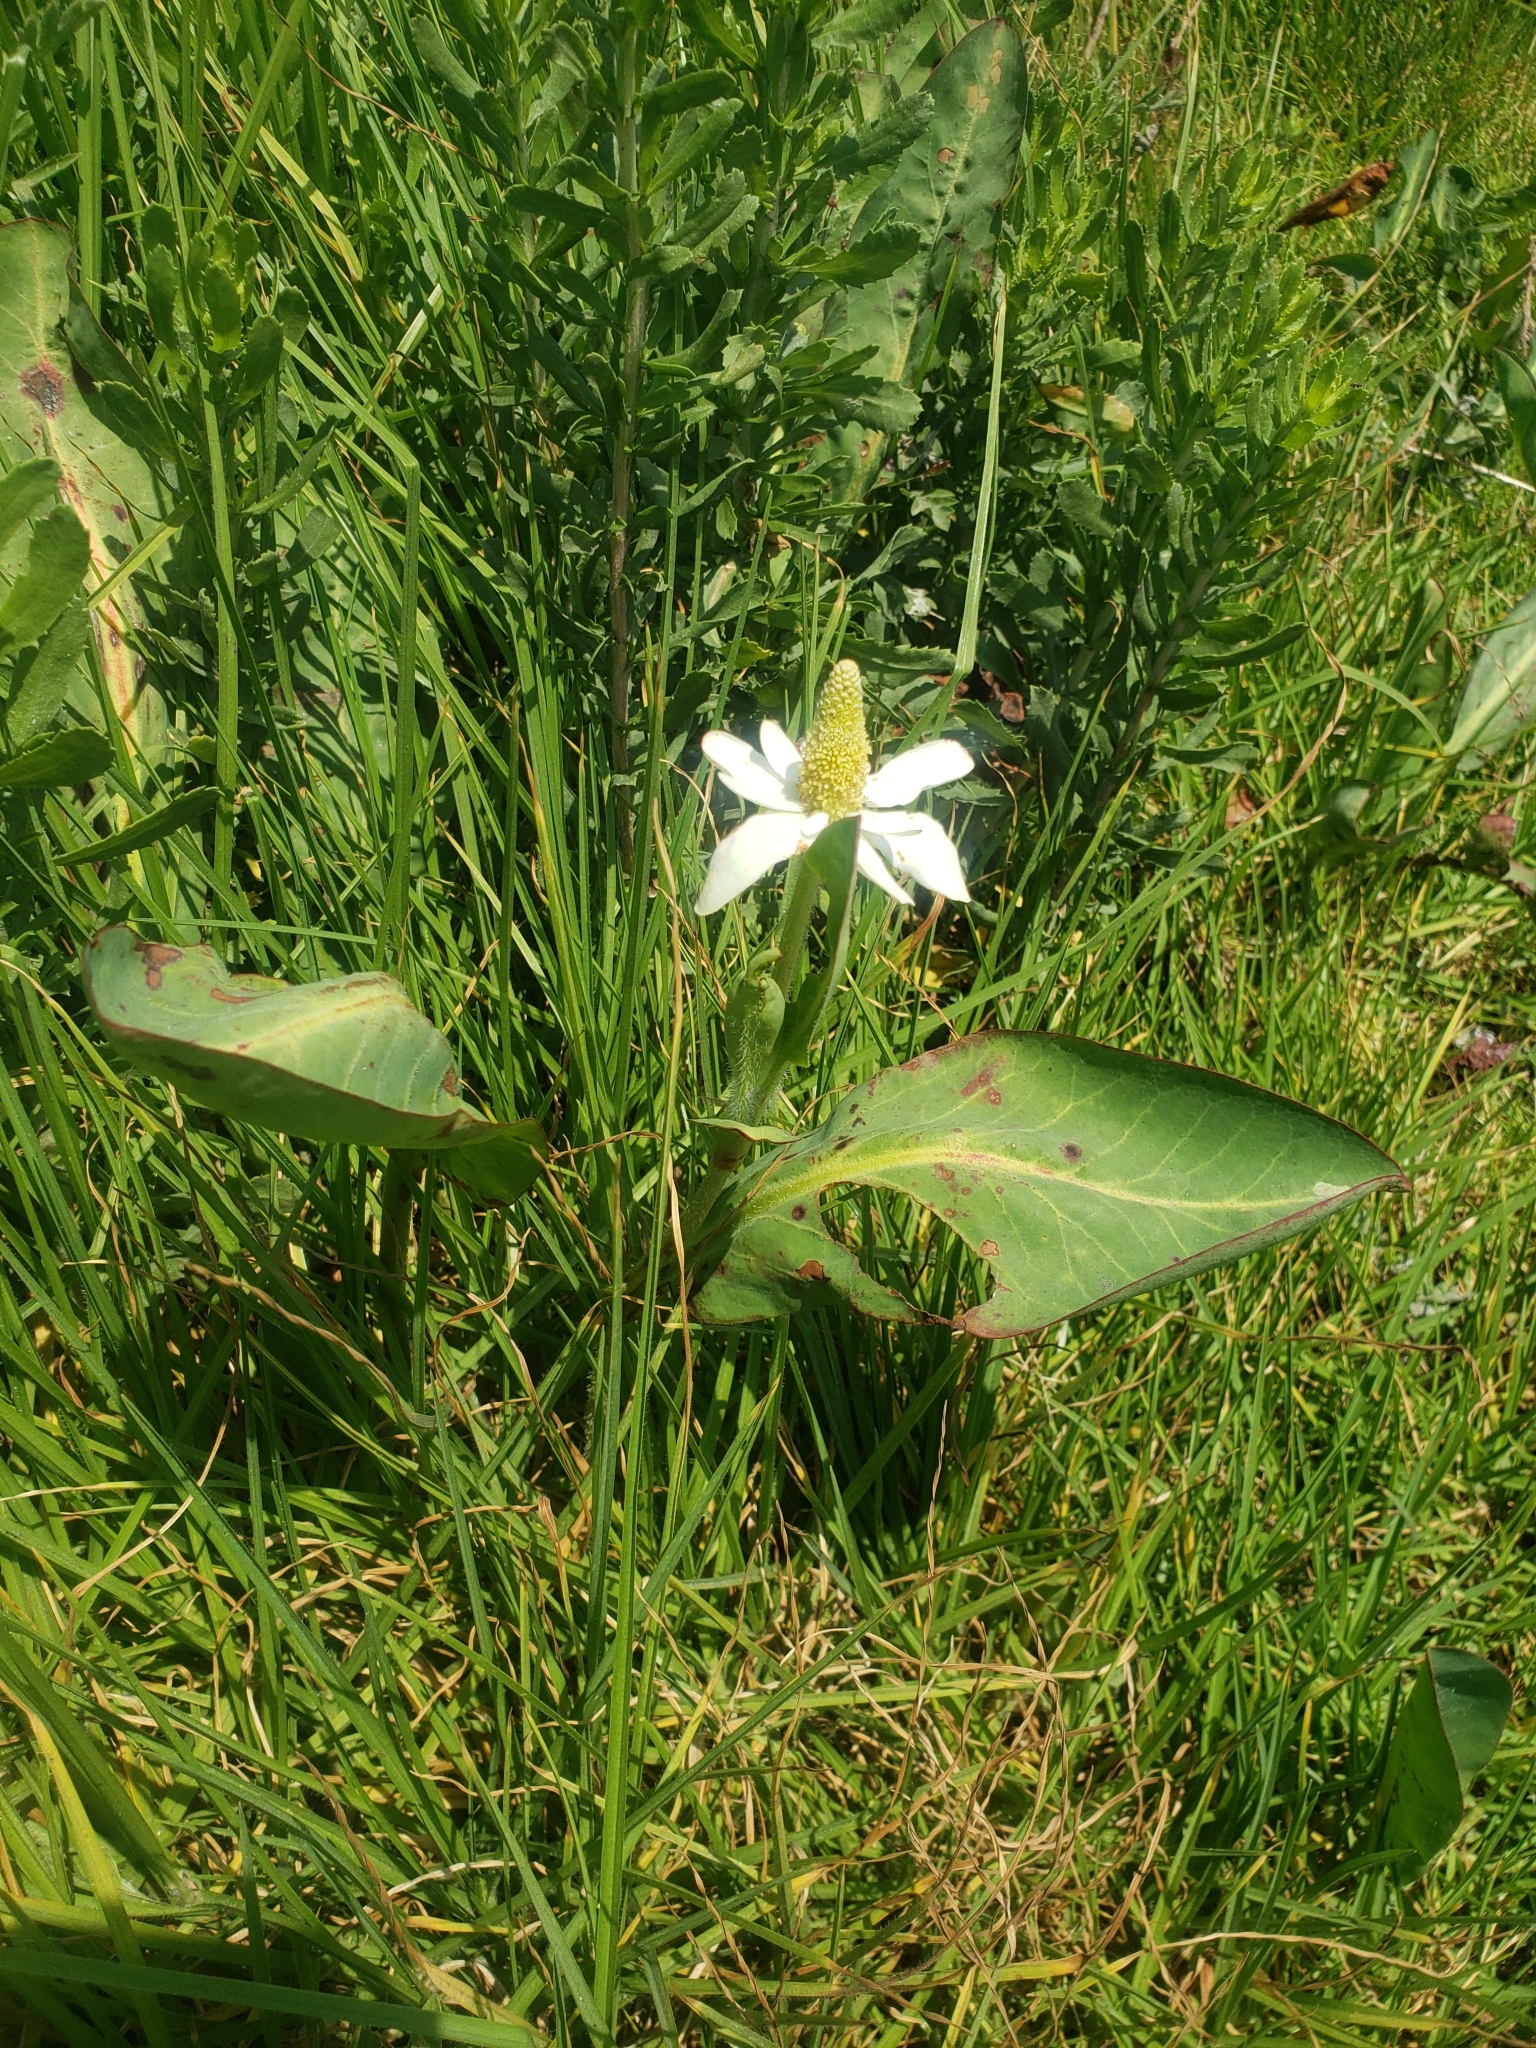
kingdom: Plantae
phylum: Tracheophyta
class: Magnoliopsida
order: Piperales
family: Saururaceae
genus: Anemopsis
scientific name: Anemopsis californica
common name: Apache-beads
